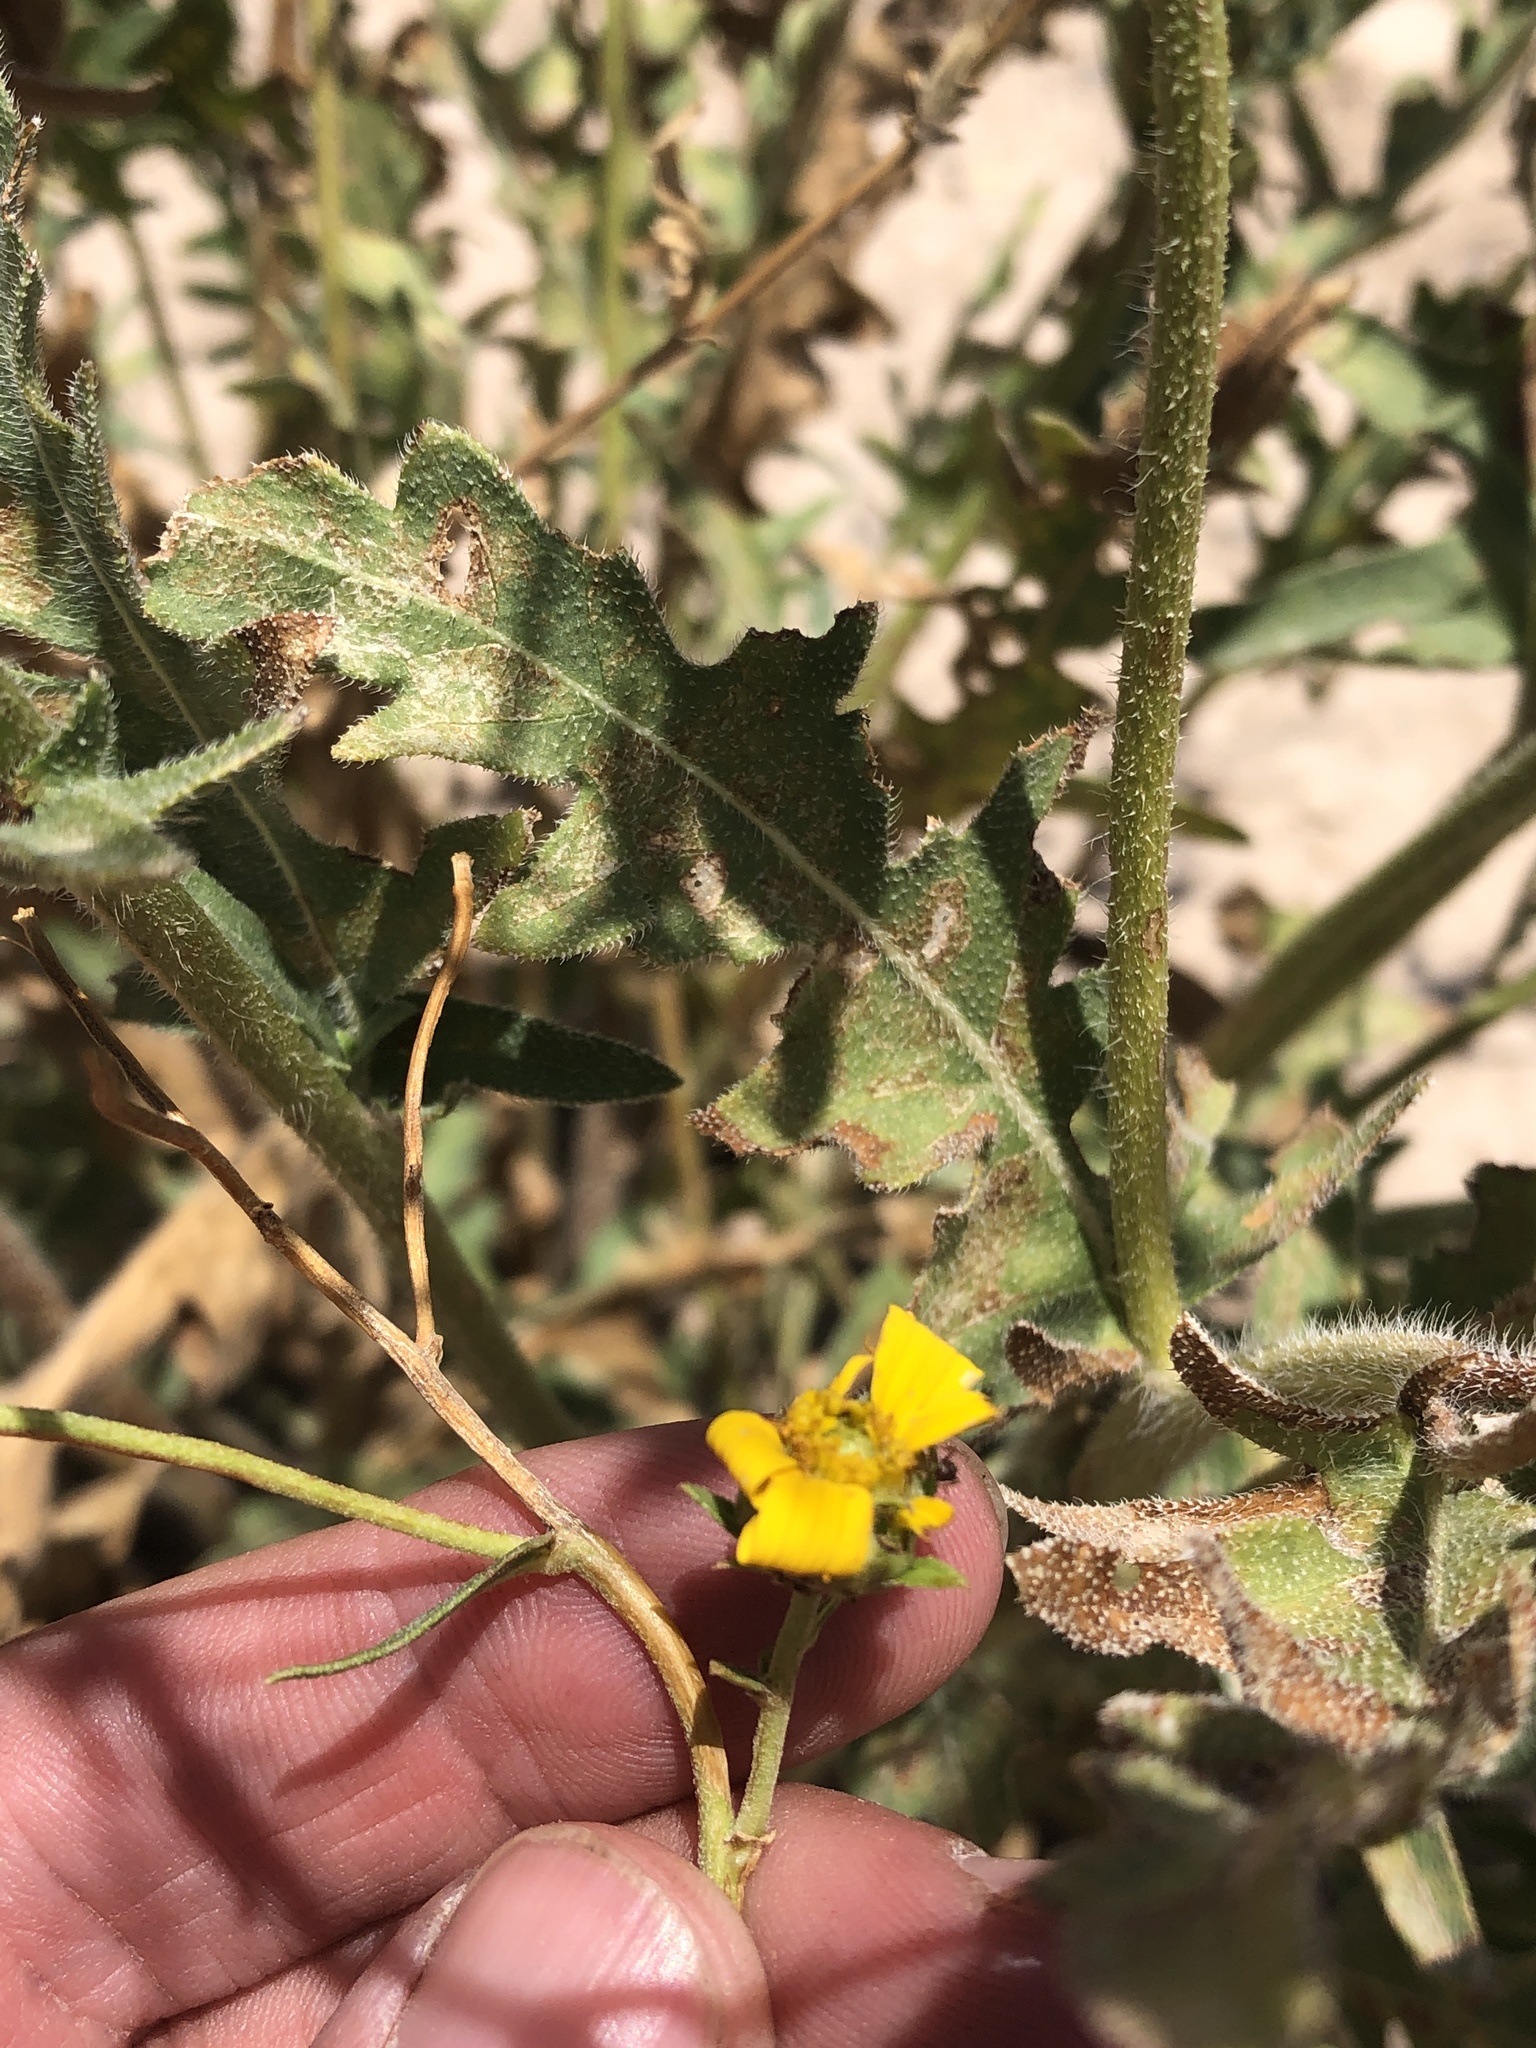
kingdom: Plantae
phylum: Tracheophyta
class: Magnoliopsida
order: Asterales
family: Asteraceae
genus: Engelmannia
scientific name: Engelmannia peristenia
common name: Engelmann's daisy
